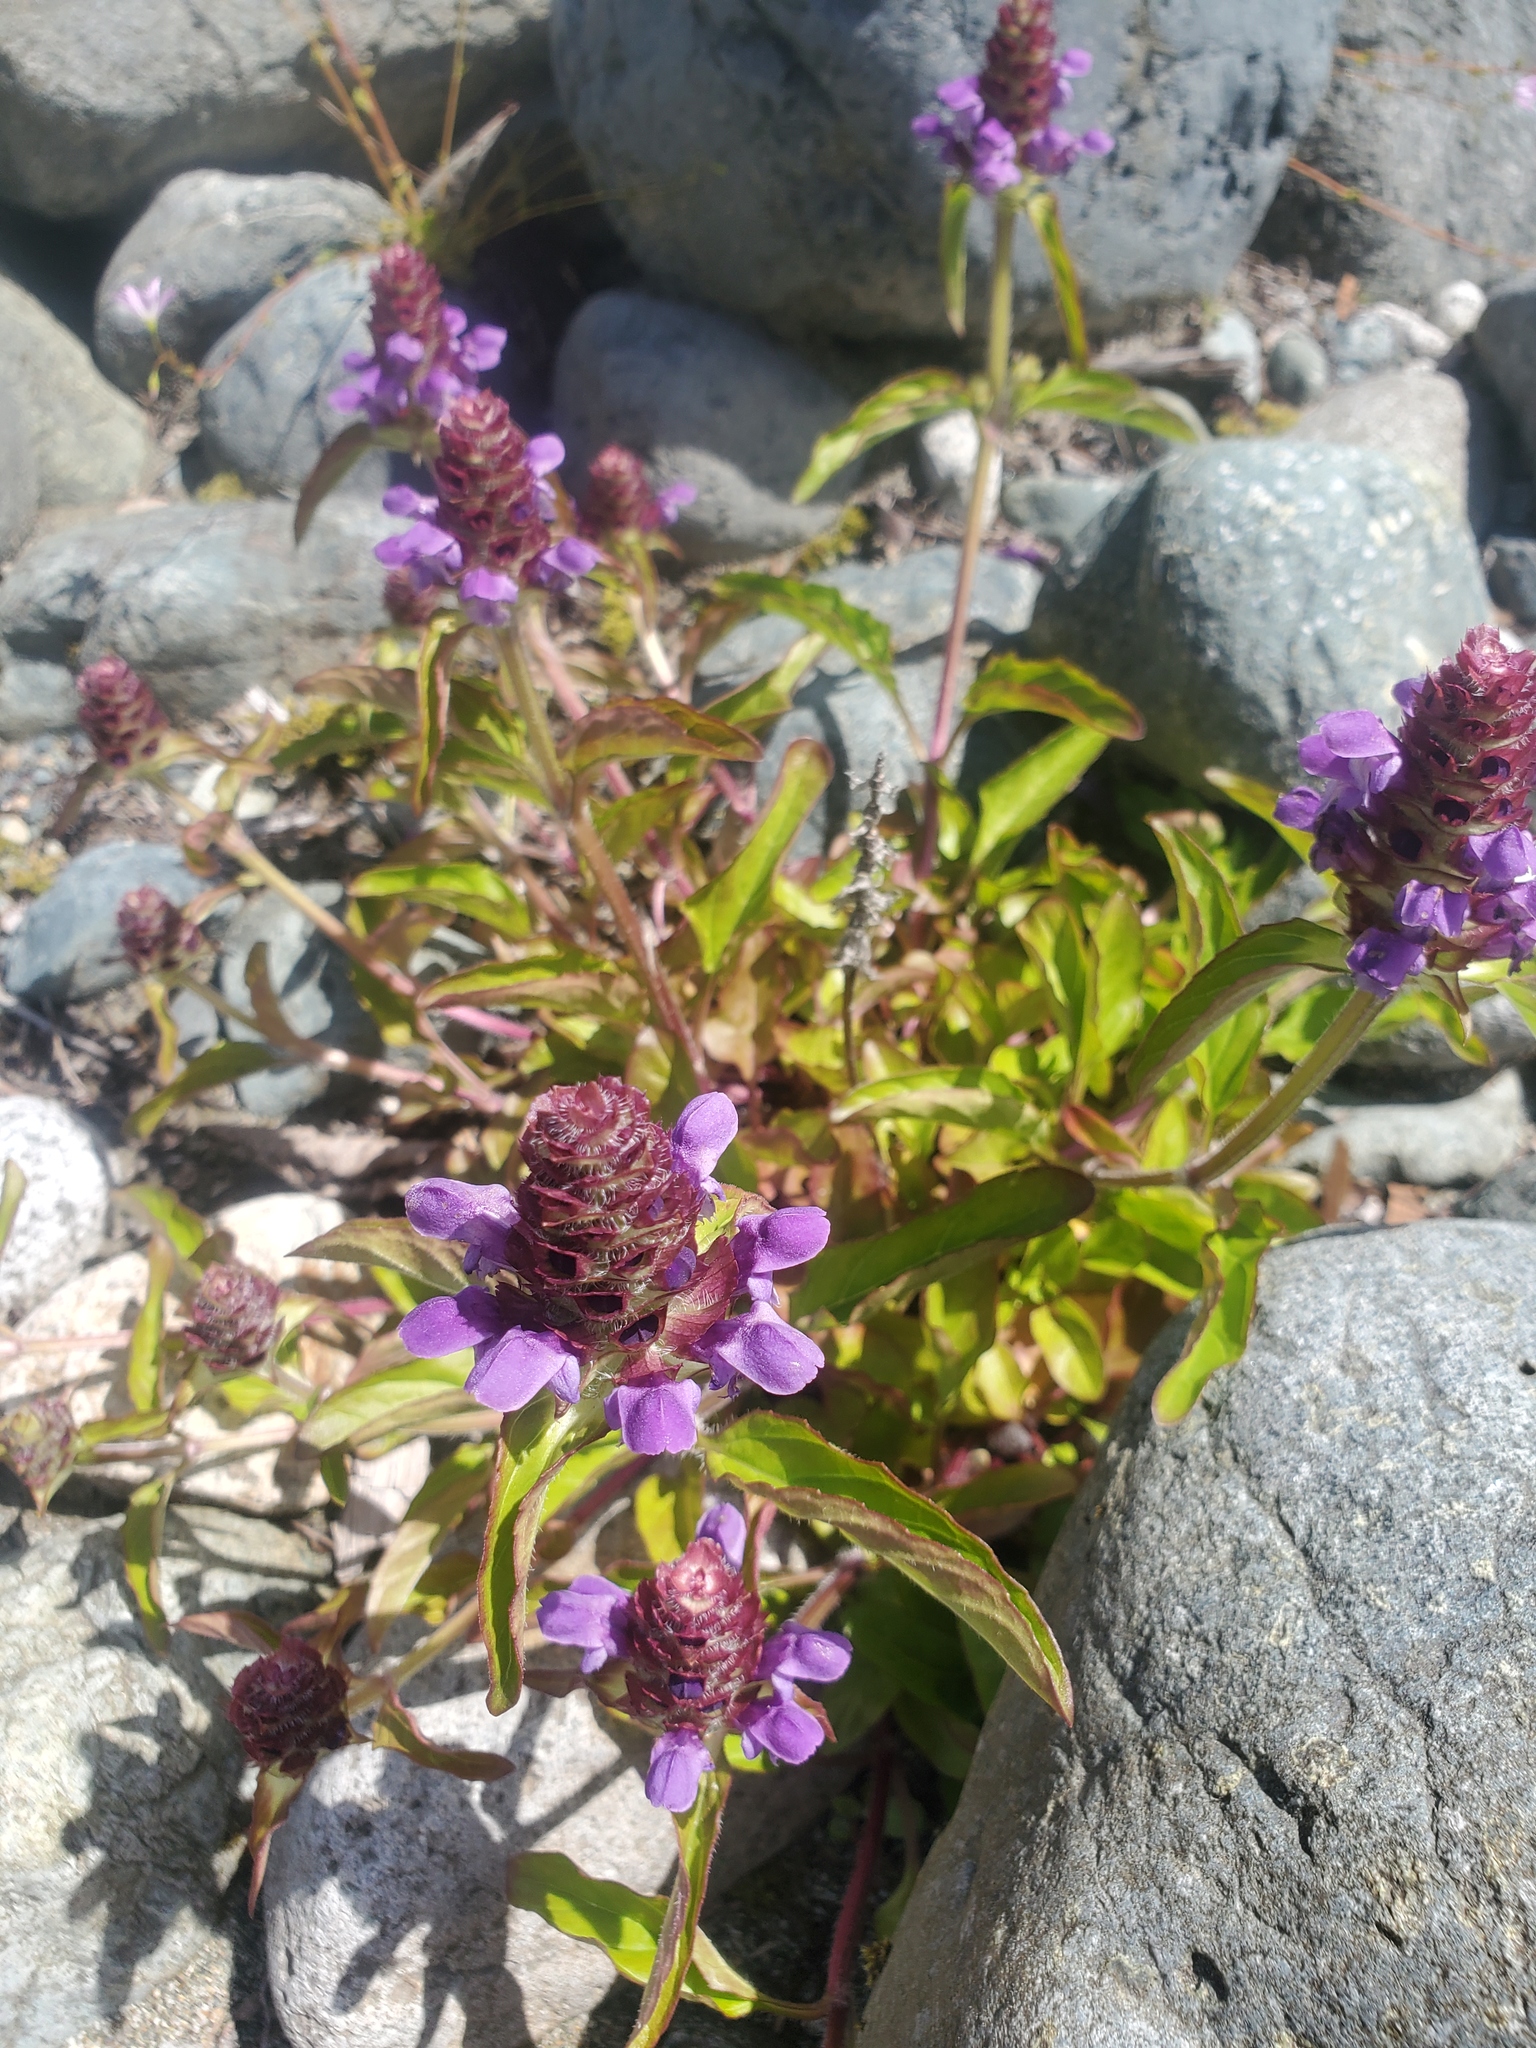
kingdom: Plantae
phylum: Tracheophyta
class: Magnoliopsida
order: Lamiales
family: Lamiaceae
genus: Prunella
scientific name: Prunella vulgaris
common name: Heal-all
